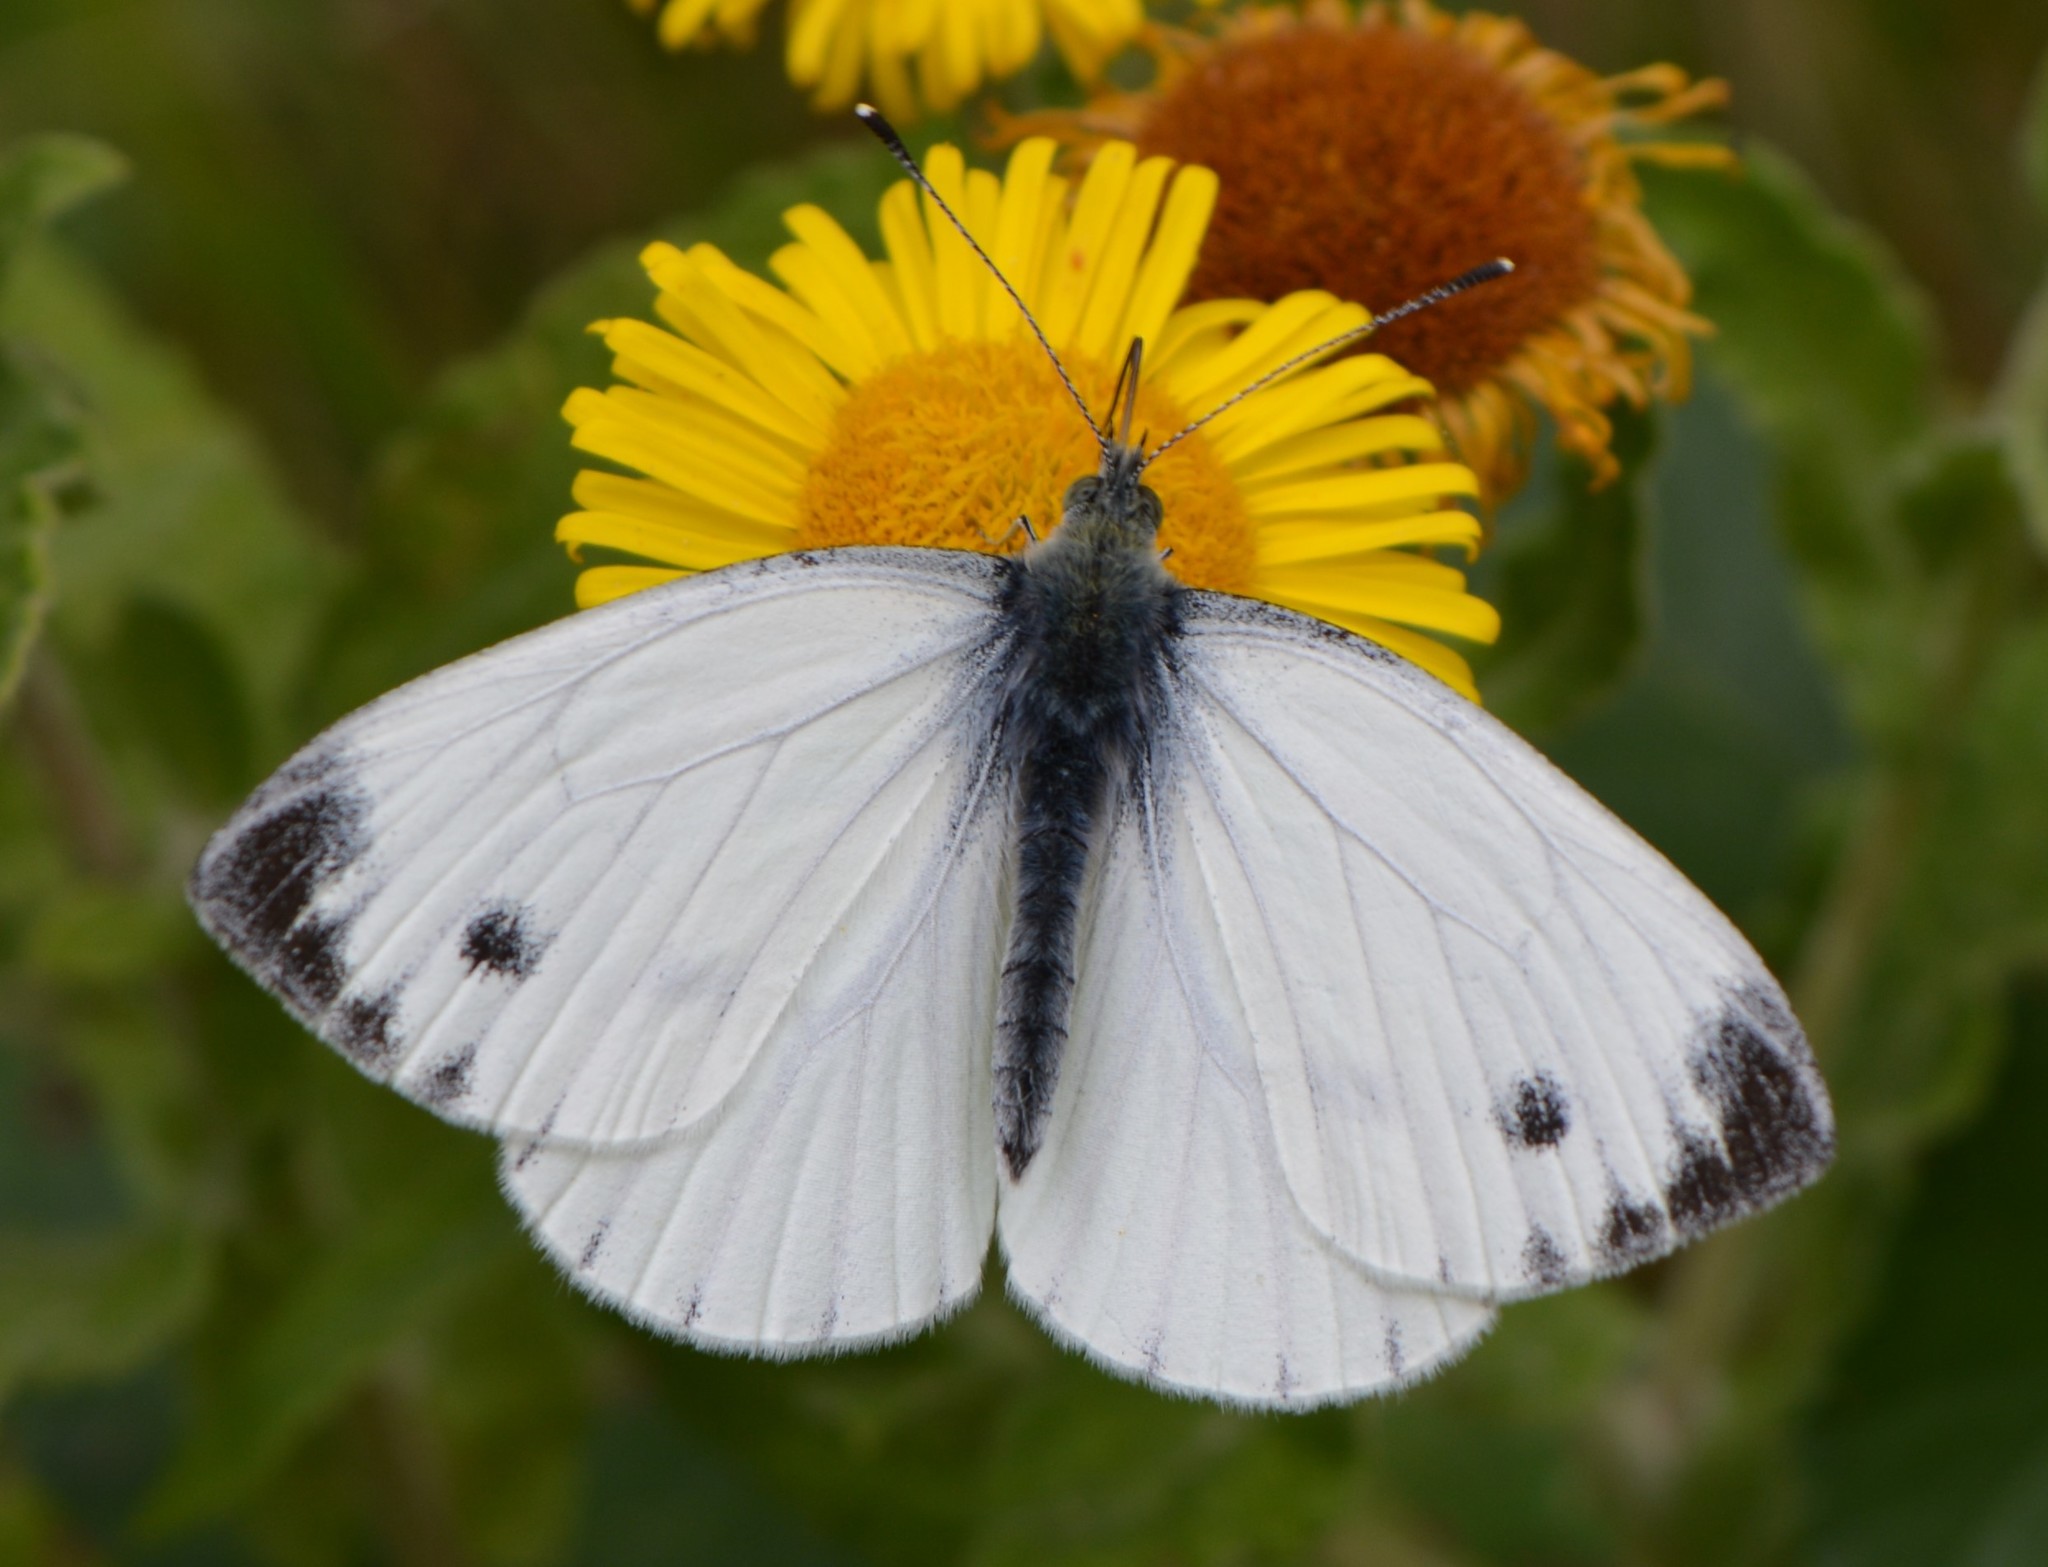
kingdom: Animalia
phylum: Arthropoda
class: Insecta
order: Lepidoptera
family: Pieridae
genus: Pieris
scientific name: Pieris napi
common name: Green-veined white
